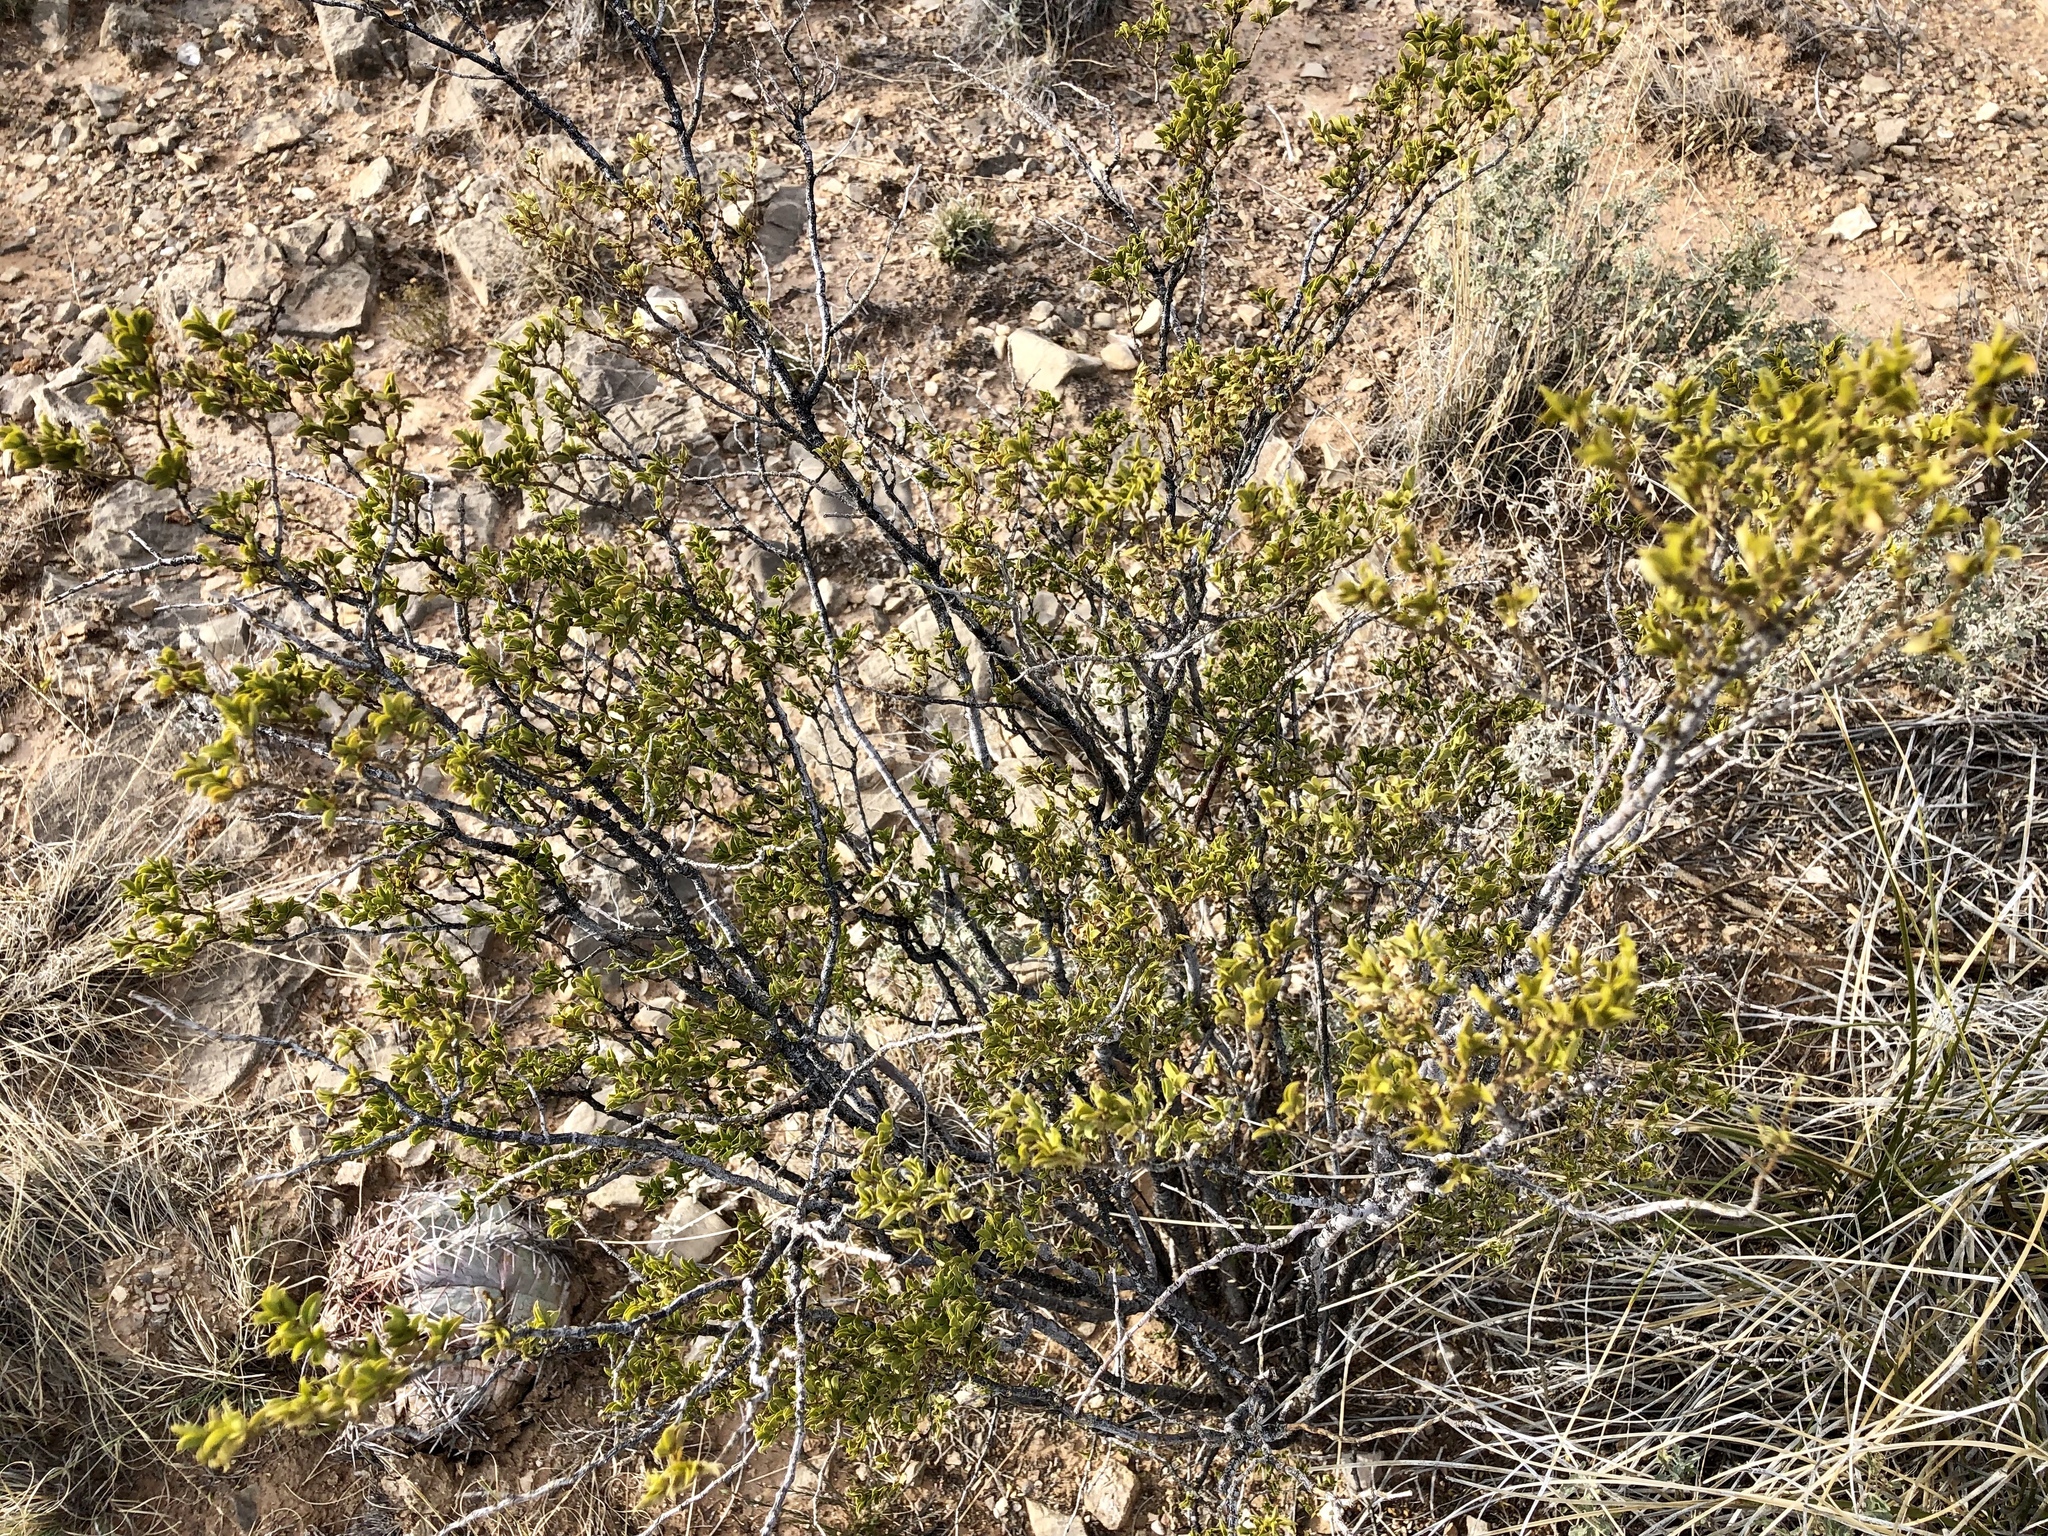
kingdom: Plantae
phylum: Tracheophyta
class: Magnoliopsida
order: Zygophyllales
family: Zygophyllaceae
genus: Larrea
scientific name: Larrea tridentata
